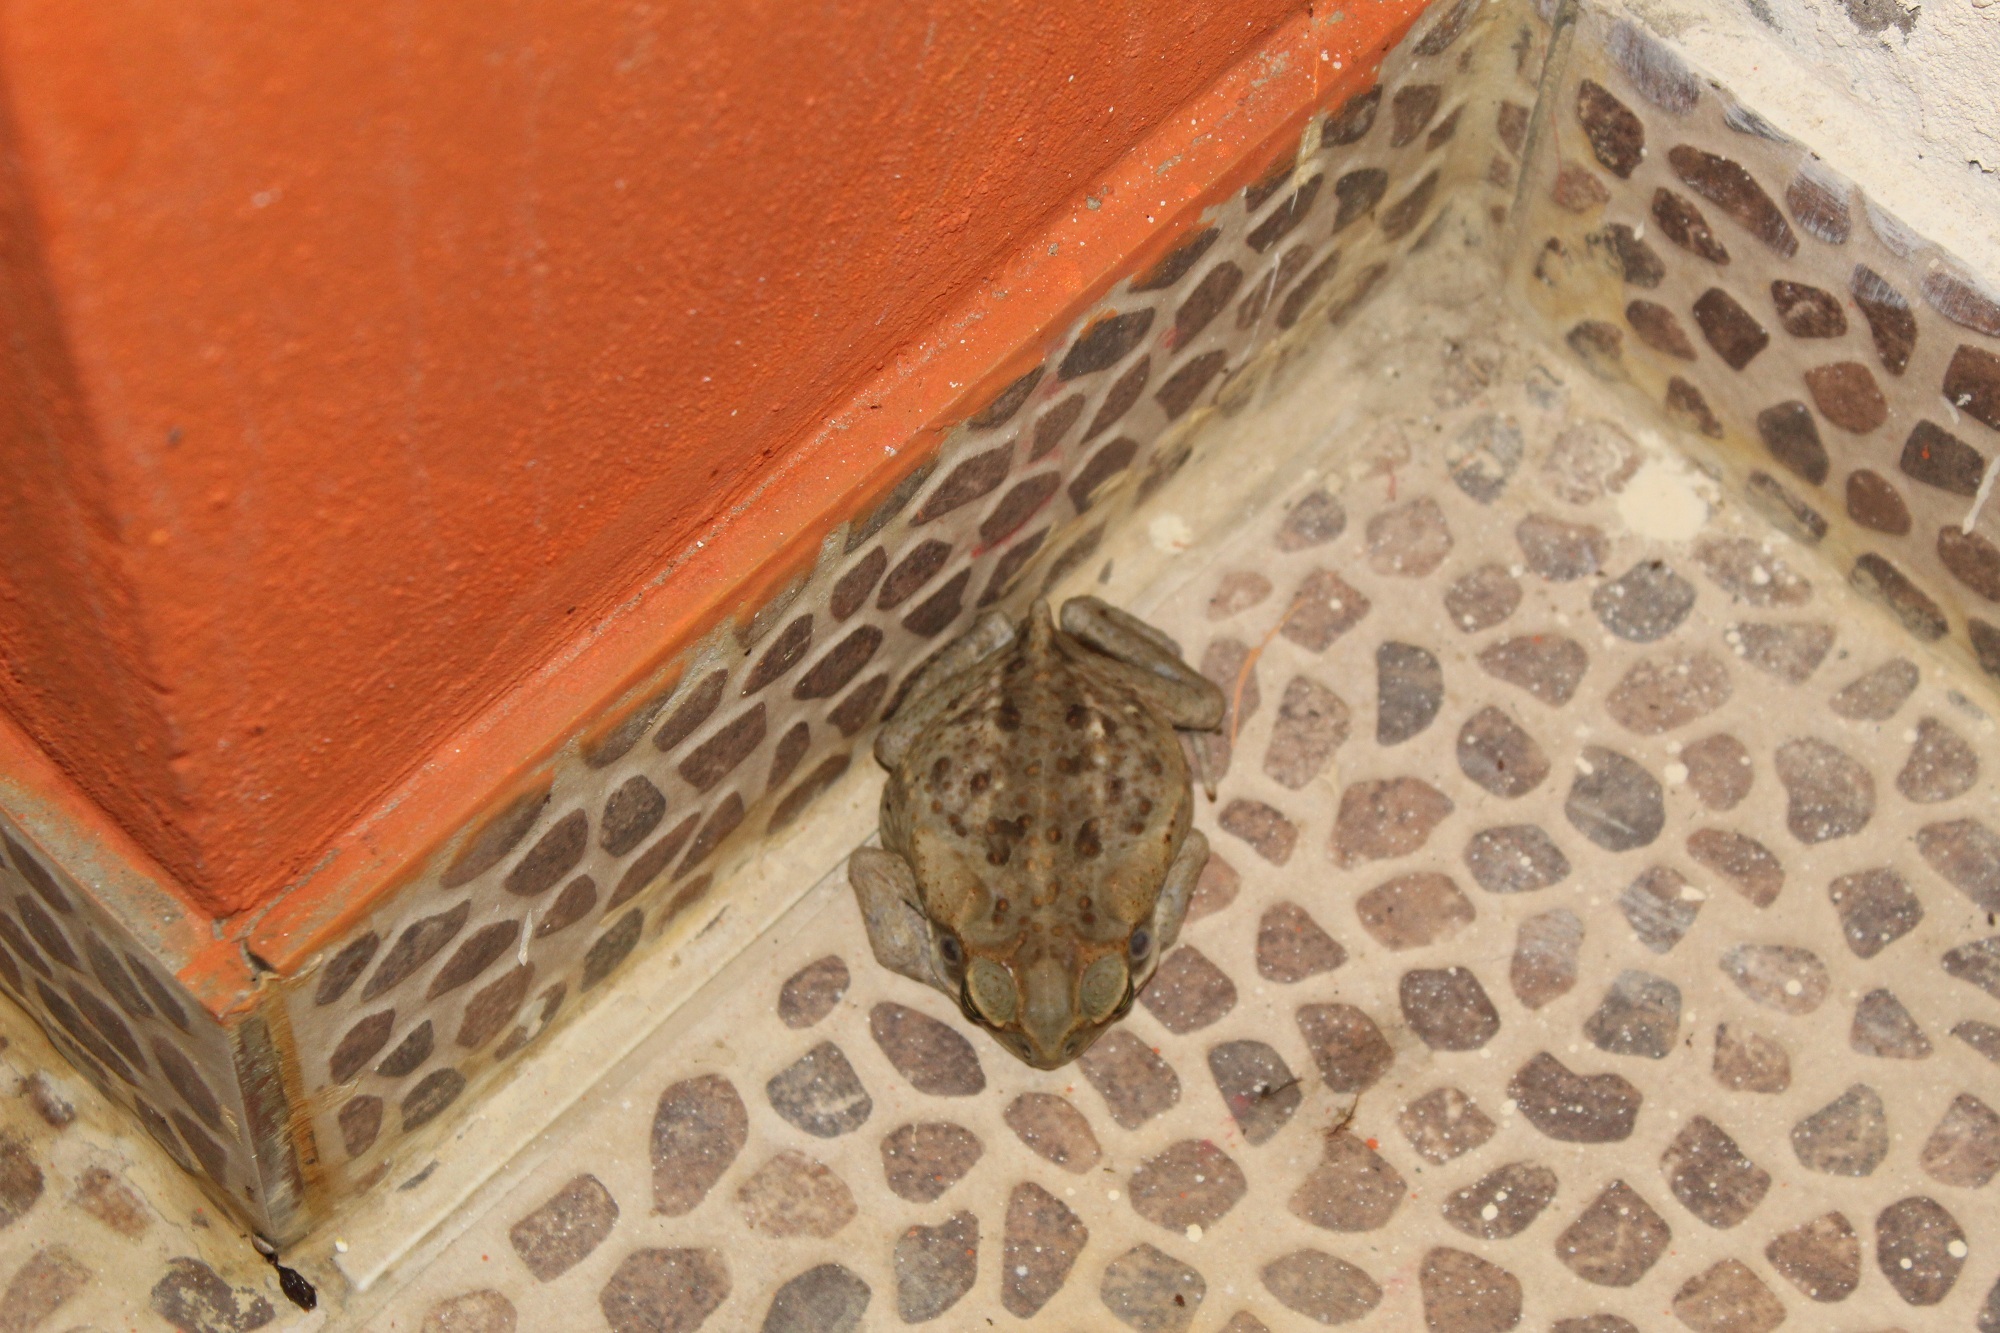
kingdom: Animalia
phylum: Chordata
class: Amphibia
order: Anura
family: Bufonidae
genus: Rhinella
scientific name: Rhinella marina
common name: Cane toad
